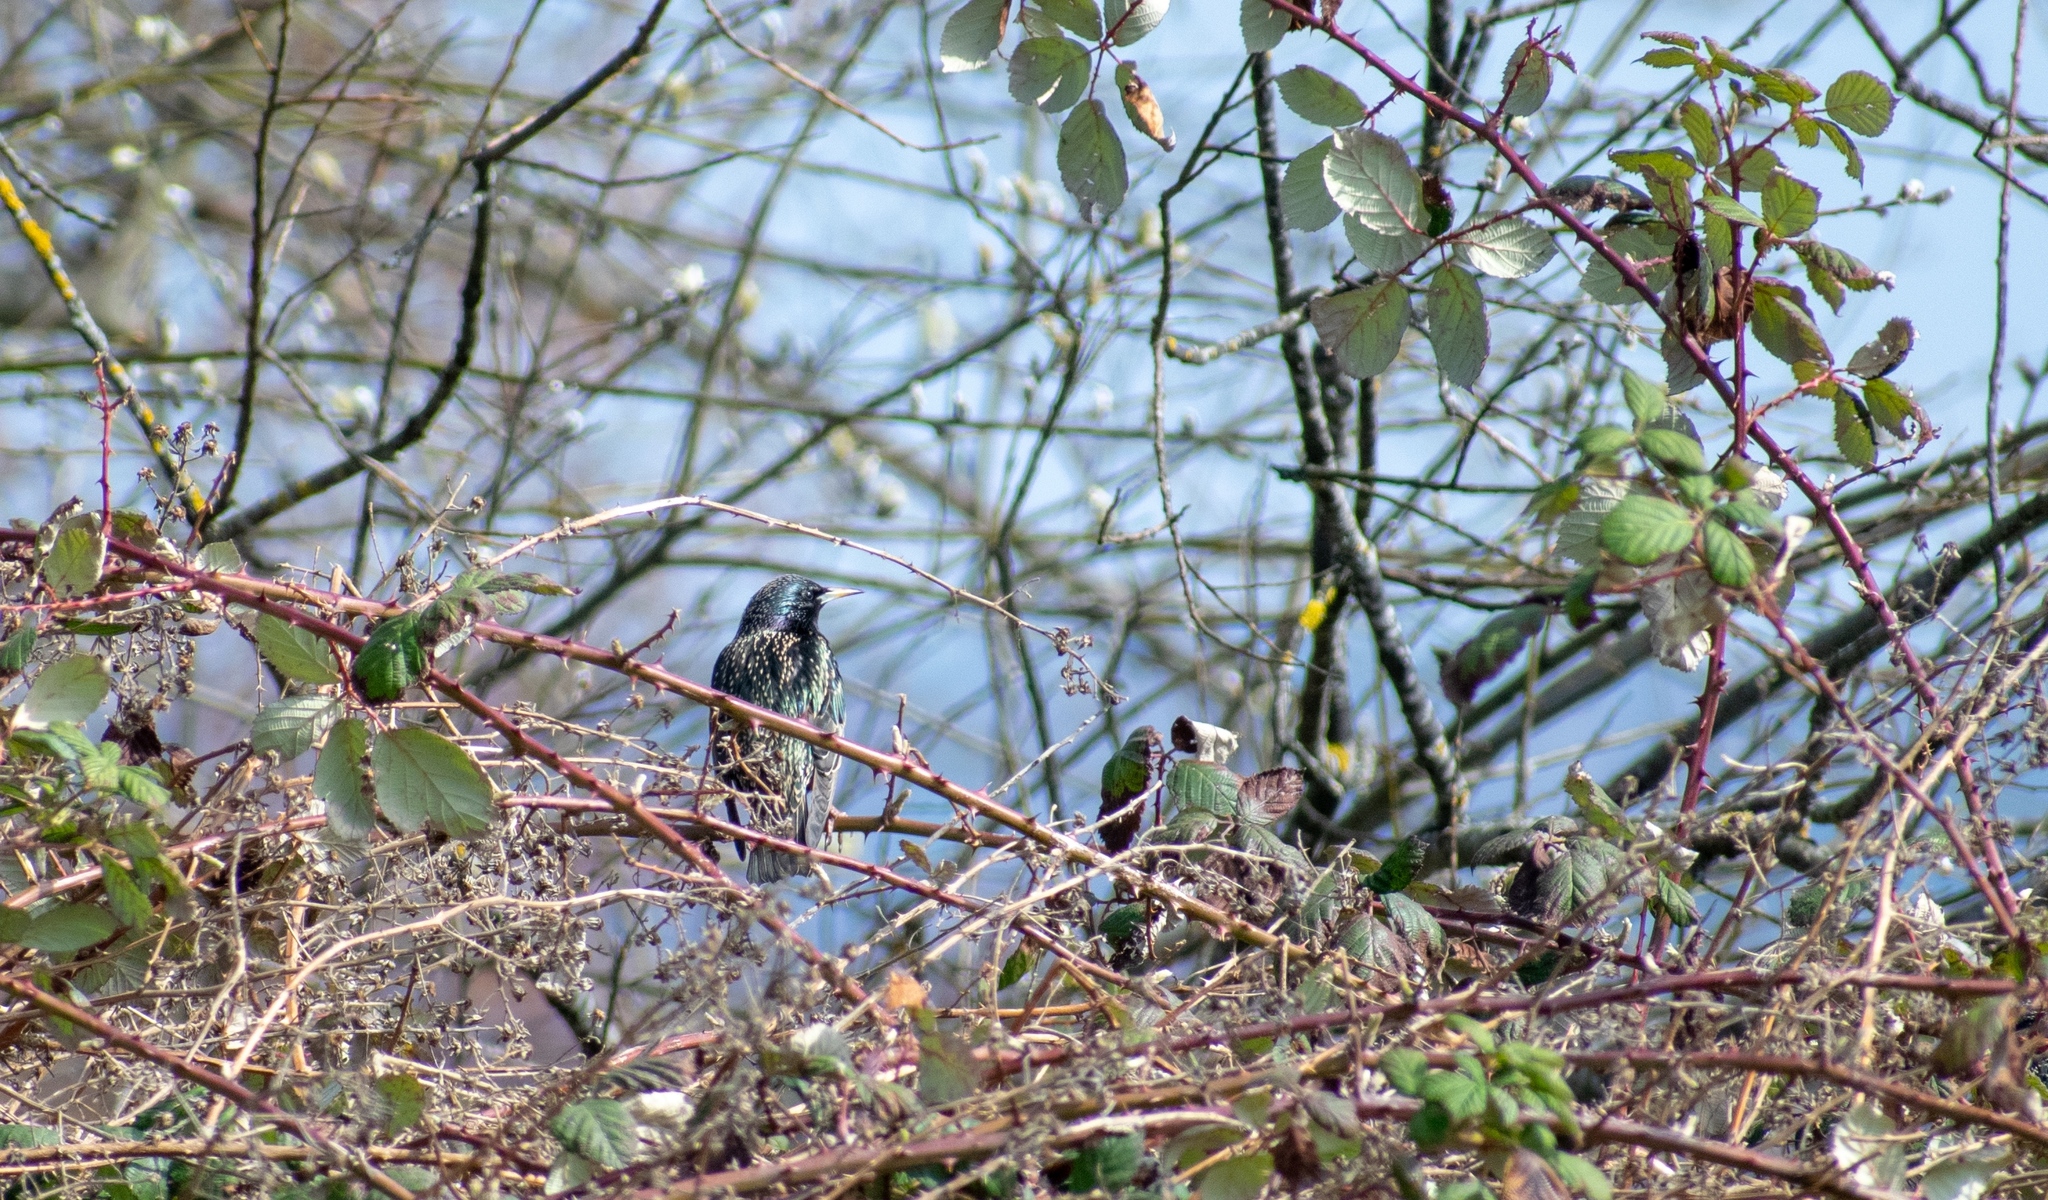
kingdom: Animalia
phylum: Chordata
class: Aves
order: Passeriformes
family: Sturnidae
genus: Sturnus
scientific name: Sturnus vulgaris
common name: Common starling
